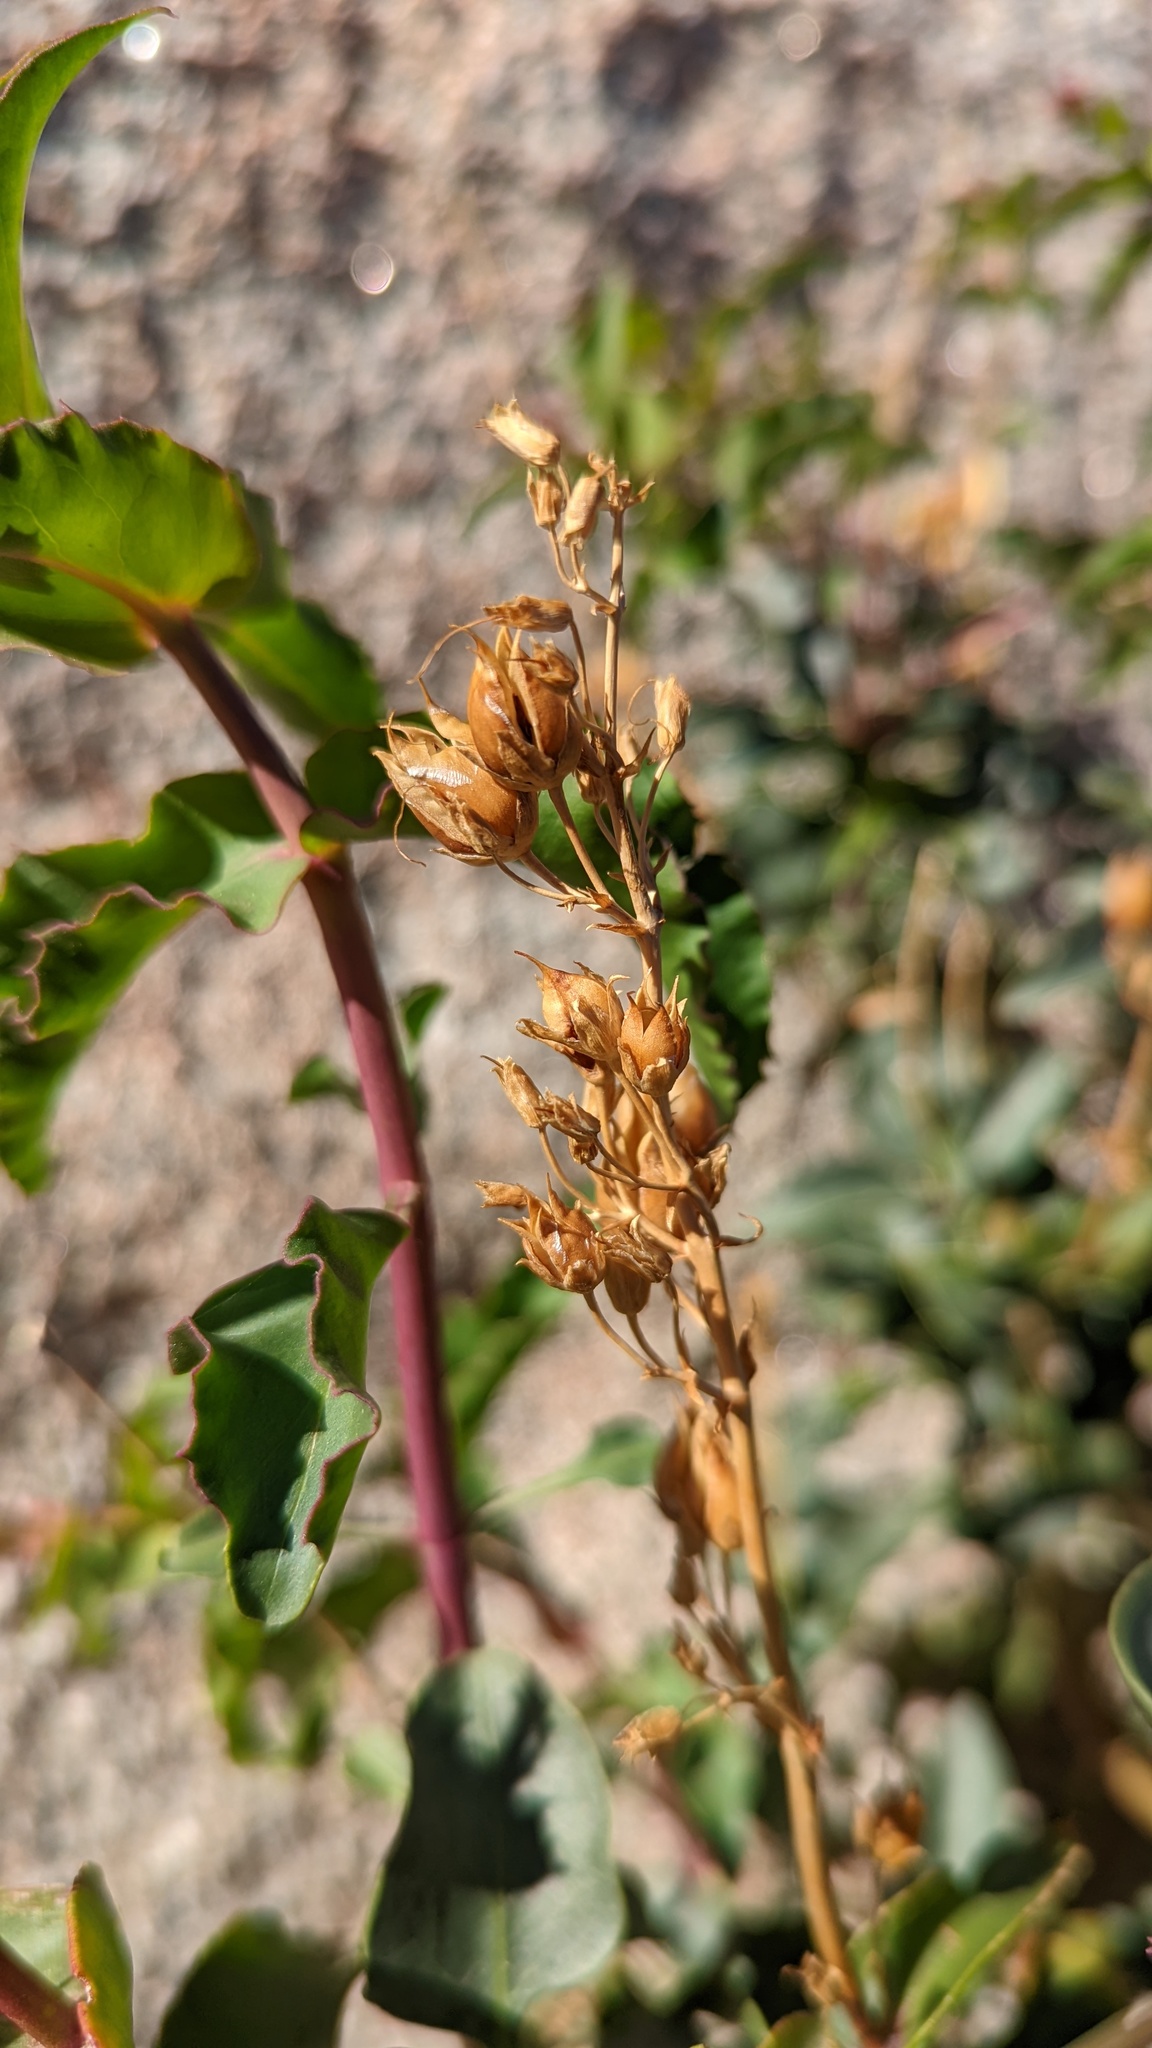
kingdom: Plantae
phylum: Tracheophyta
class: Magnoliopsida
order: Lamiales
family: Plantaginaceae
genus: Penstemon
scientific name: Penstemon clevelandii
